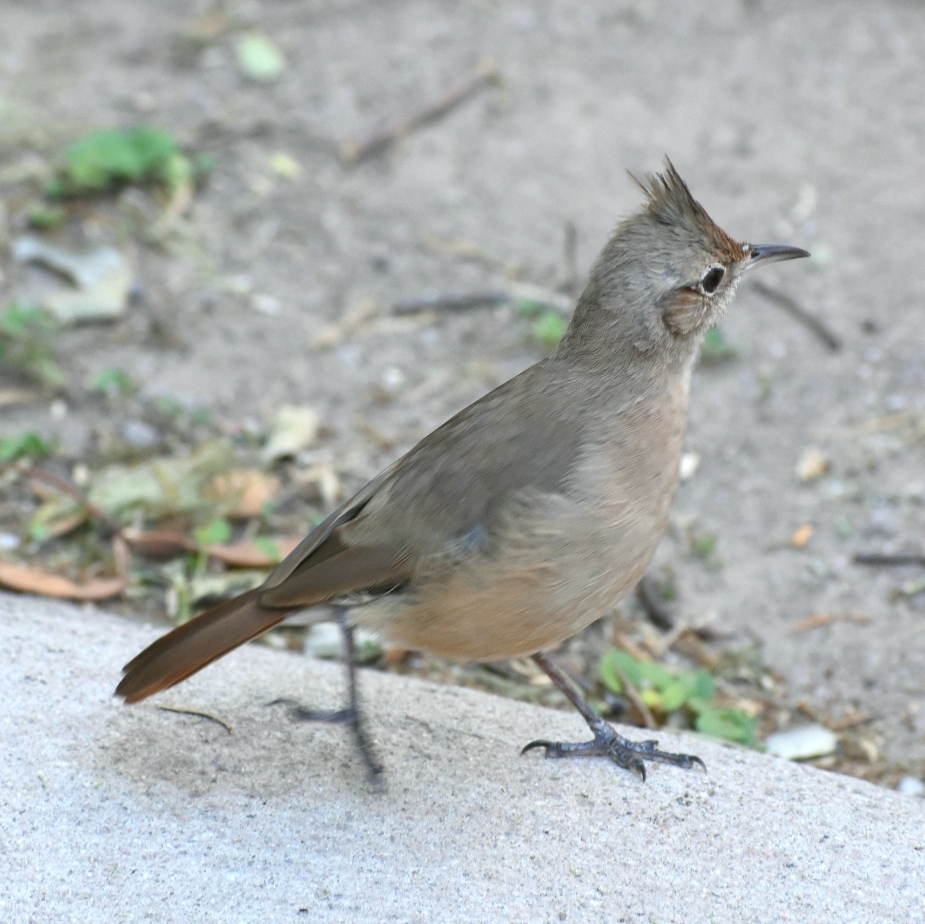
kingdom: Animalia
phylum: Chordata
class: Aves
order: Passeriformes
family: Furnariidae
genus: Furnarius
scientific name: Furnarius cristatus
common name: Crested hornero
